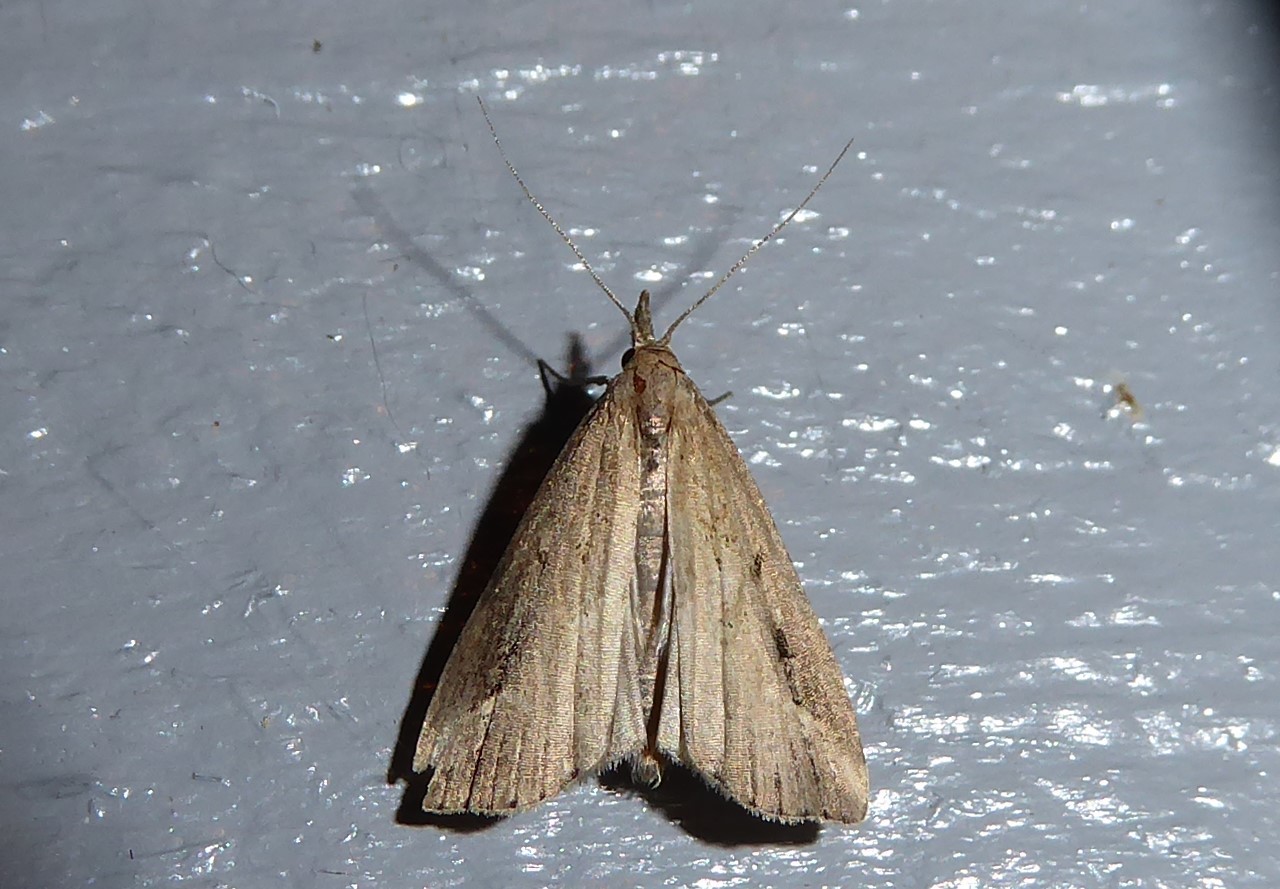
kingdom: Animalia
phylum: Arthropoda
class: Insecta
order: Lepidoptera
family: Erebidae
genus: Schrankia
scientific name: Schrankia costaestrigalis
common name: Pinion-streaked snout
